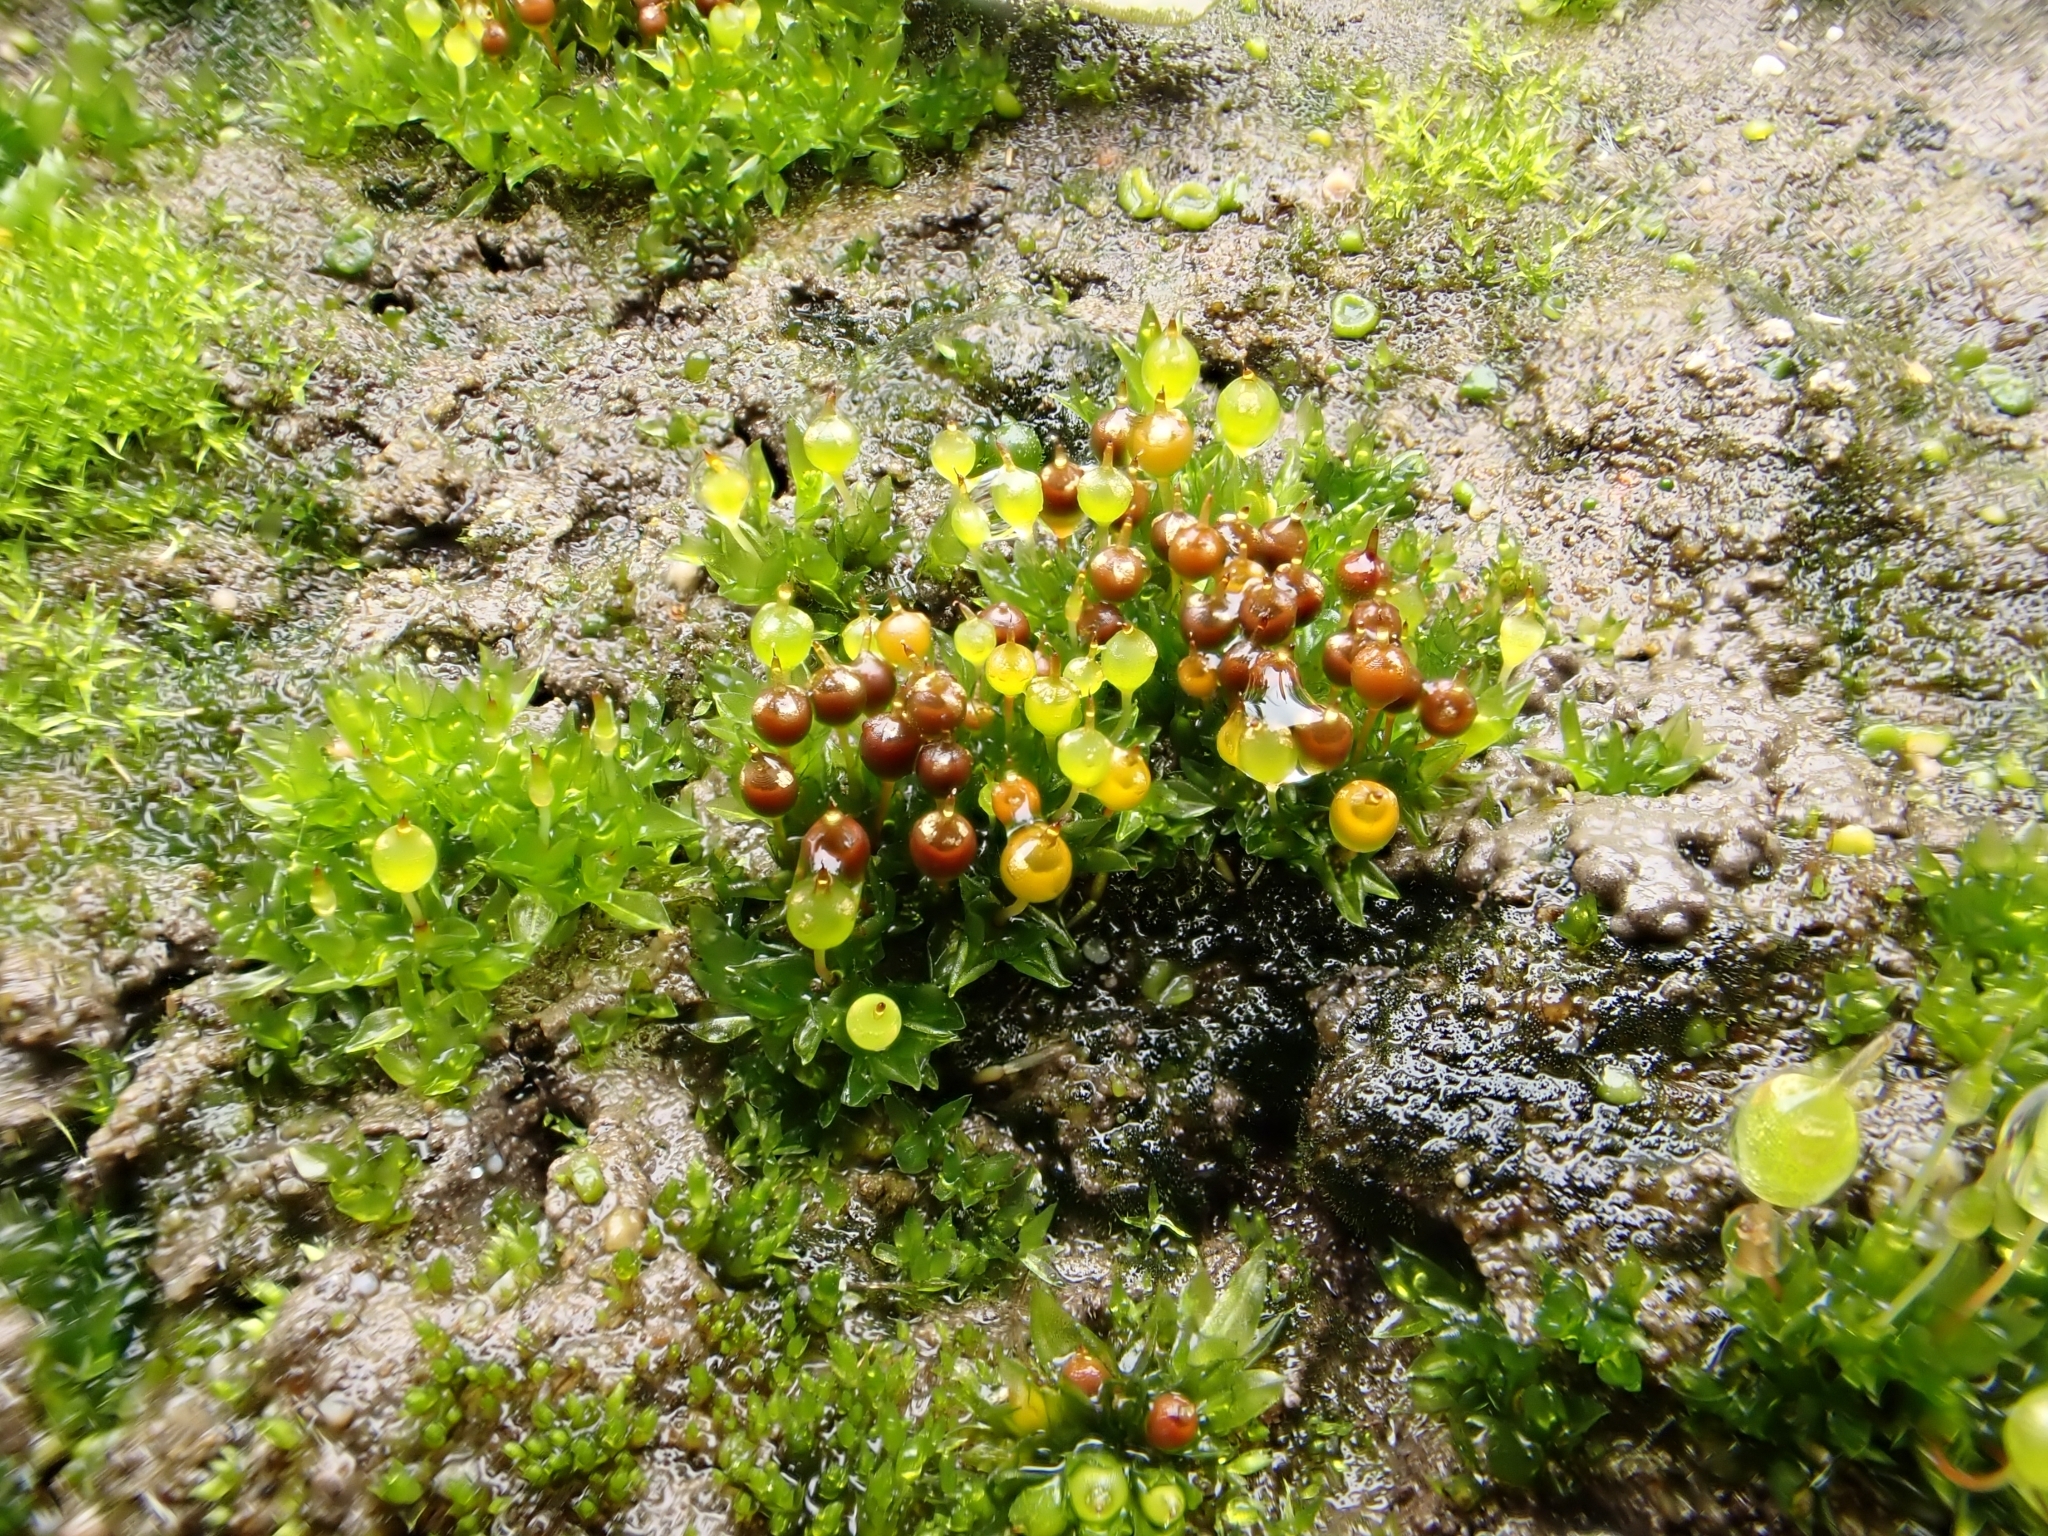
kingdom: Plantae
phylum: Bryophyta
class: Bryopsida
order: Funariales
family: Funariaceae
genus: Physcomitrium
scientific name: Physcomitrium sphaericum
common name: Dwarf bladder-moss
